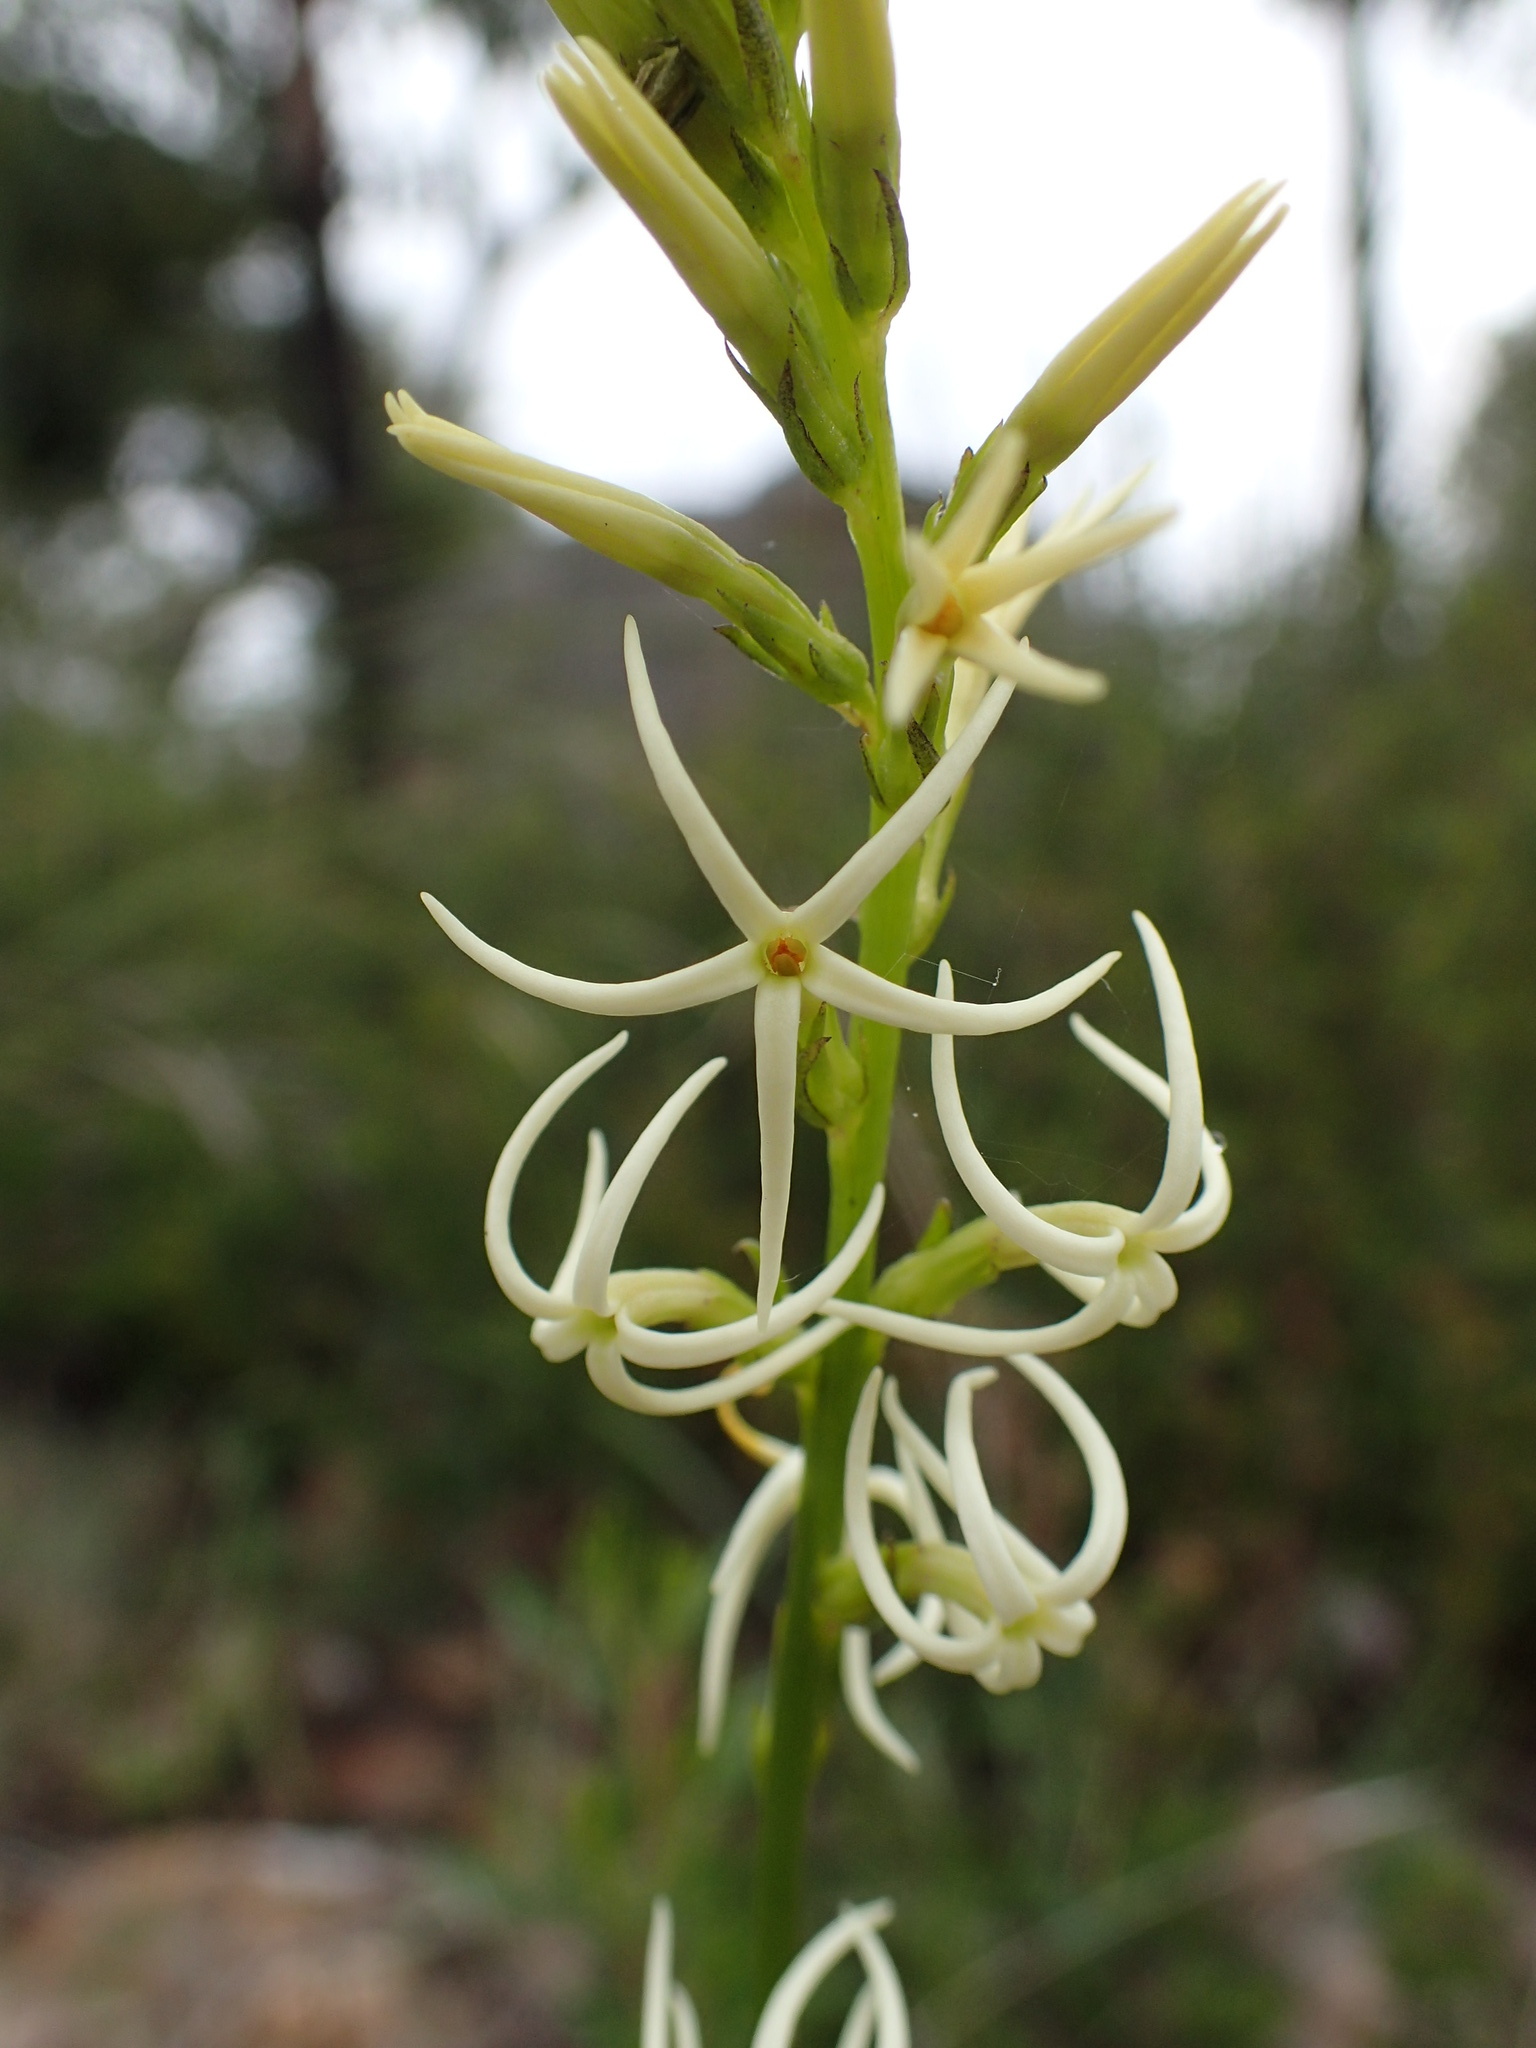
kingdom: Plantae
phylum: Tracheophyta
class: Magnoliopsida
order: Celastrales
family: Celastraceae
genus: Tripterococcus
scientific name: Tripterococcus brunonis
